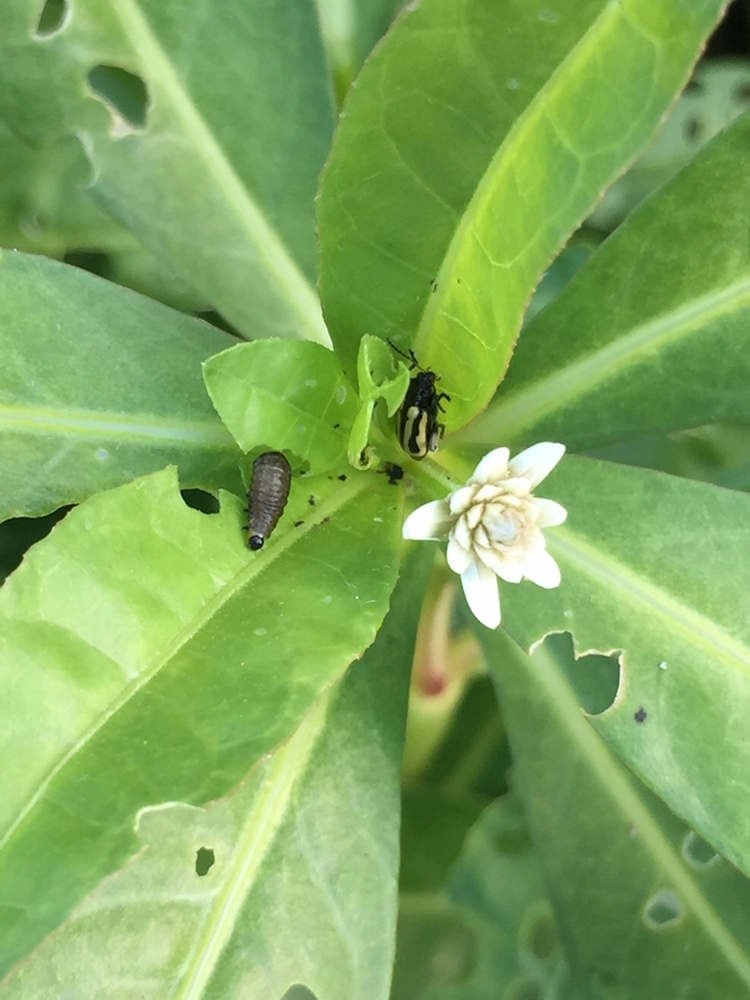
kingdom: Animalia
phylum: Arthropoda
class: Insecta
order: Coleoptera
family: Chrysomelidae
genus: Agasicles
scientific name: Agasicles hygrophila
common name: Alligatorweed flea beetle
